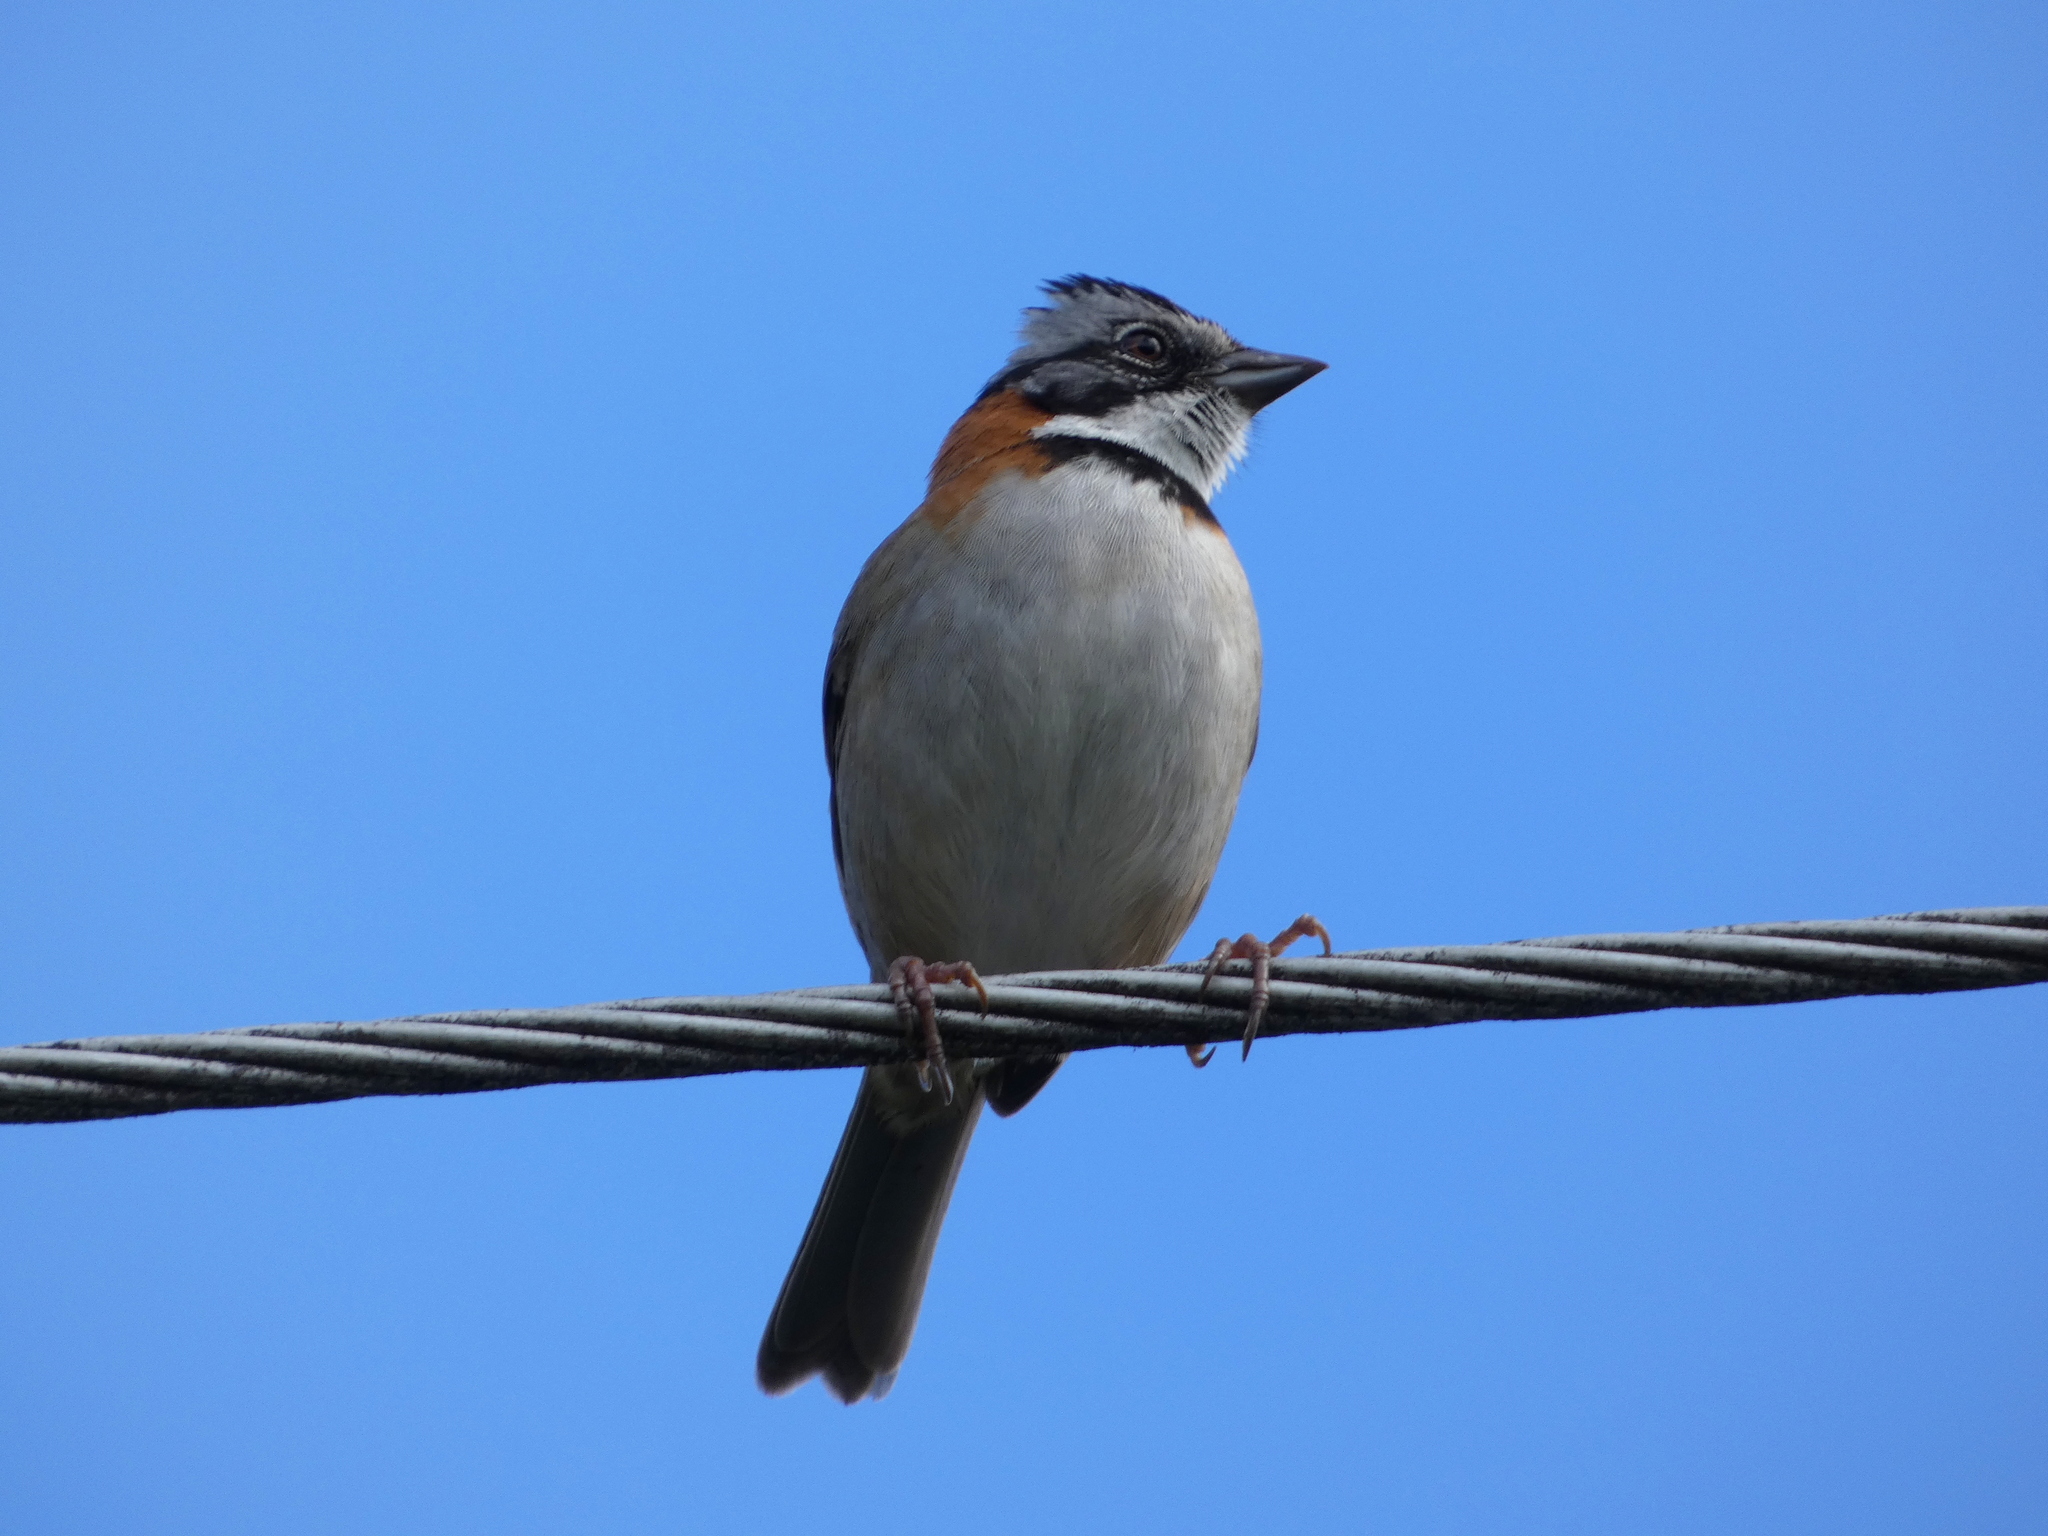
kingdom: Animalia
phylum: Chordata
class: Aves
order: Passeriformes
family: Passerellidae
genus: Zonotrichia
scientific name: Zonotrichia capensis
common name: Rufous-collared sparrow
